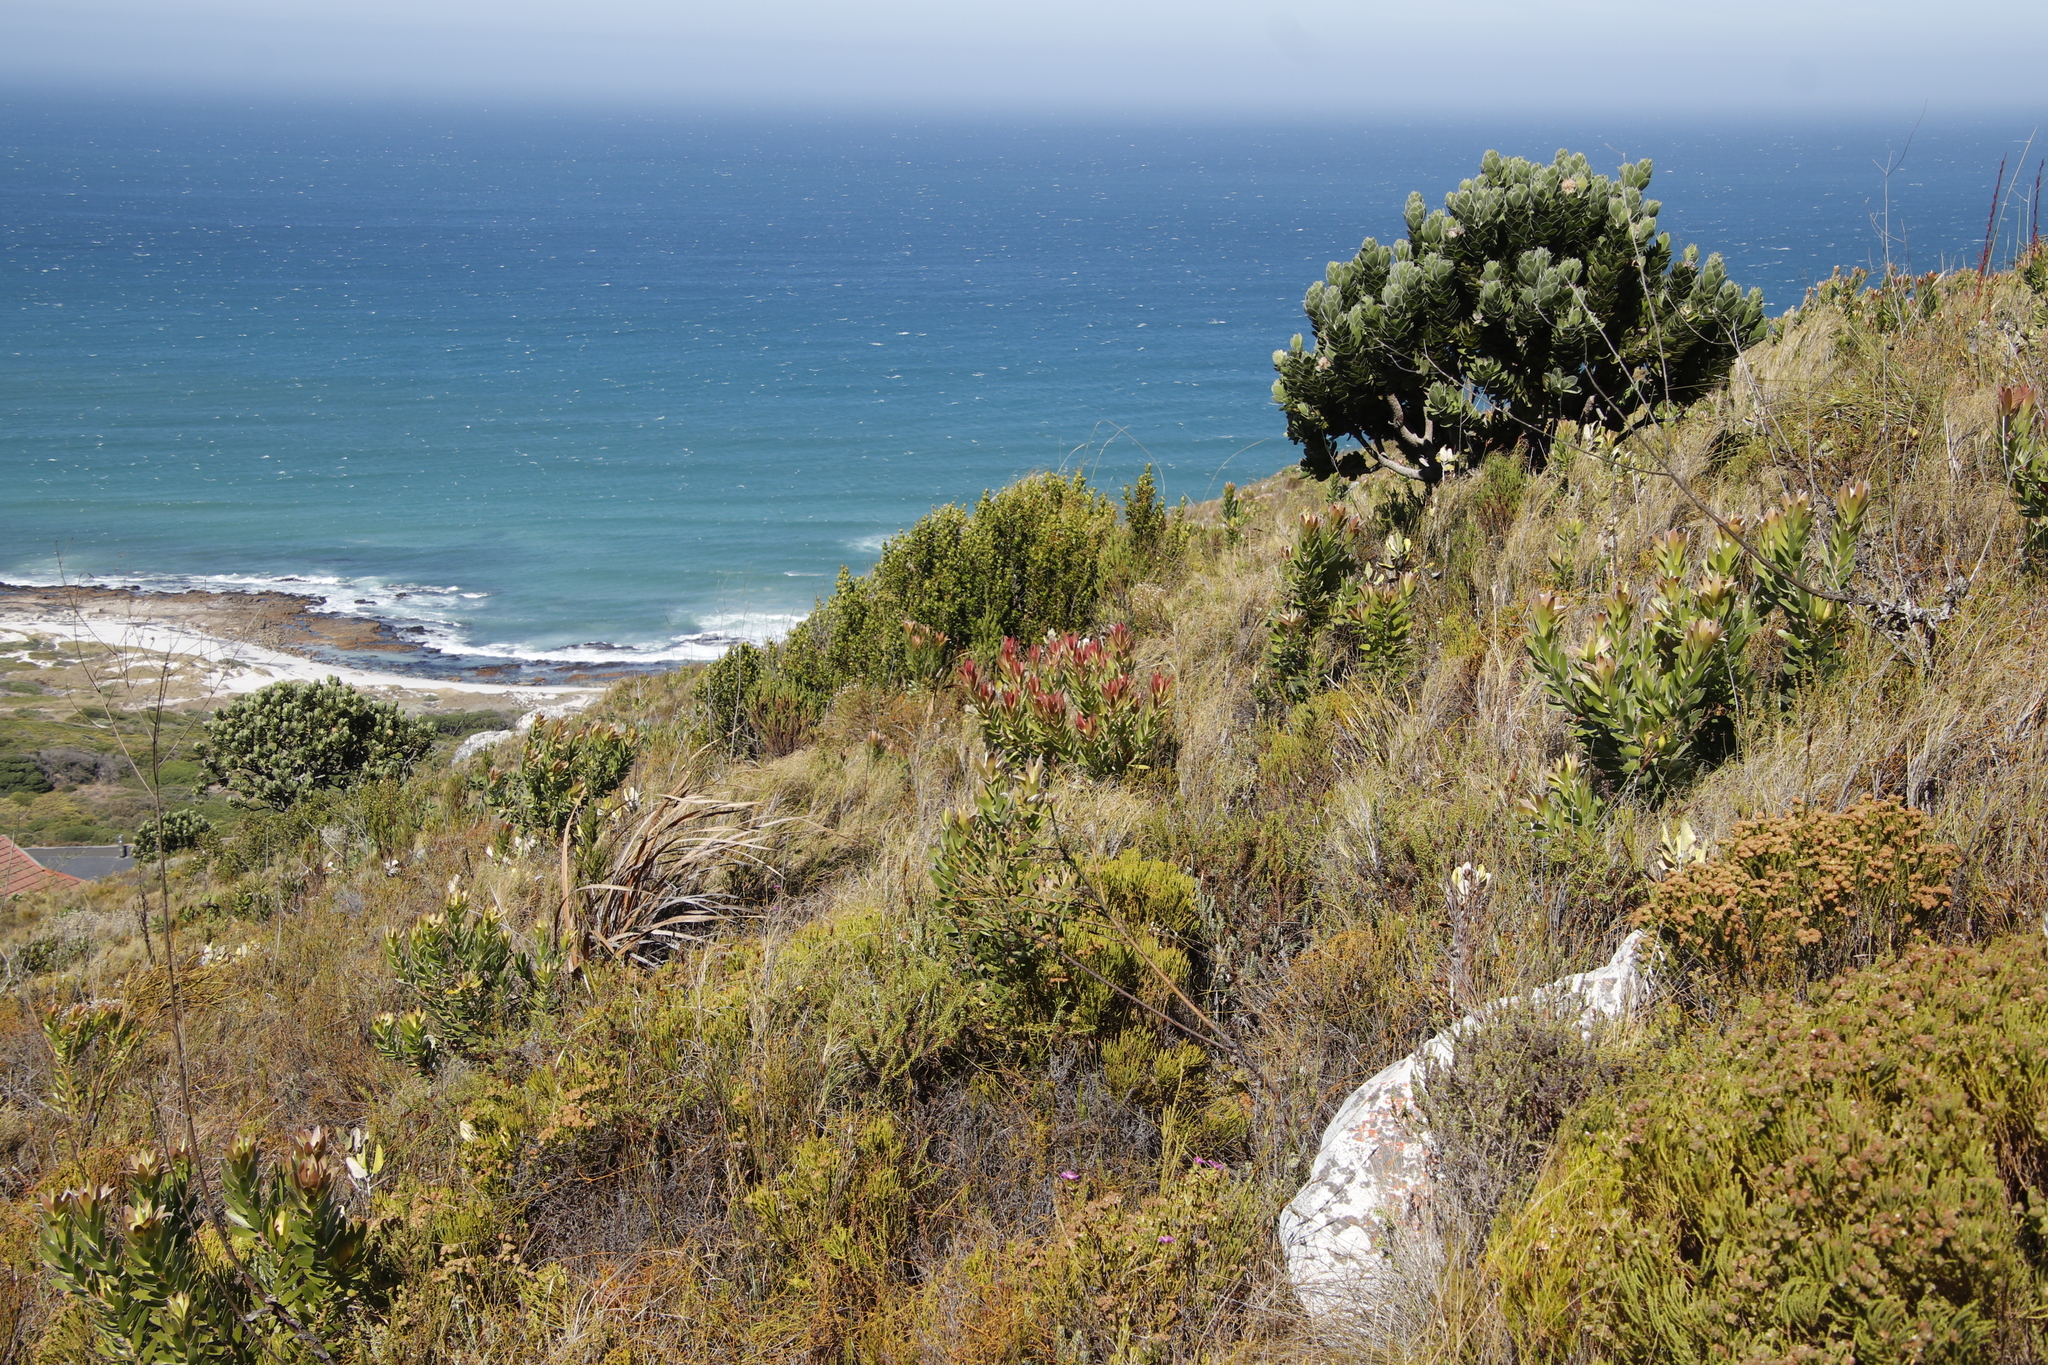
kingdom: Plantae
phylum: Tracheophyta
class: Magnoliopsida
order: Proteales
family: Proteaceae
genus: Leucadendron
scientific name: Leucadendron laureolum
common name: Golden sunshinebush
